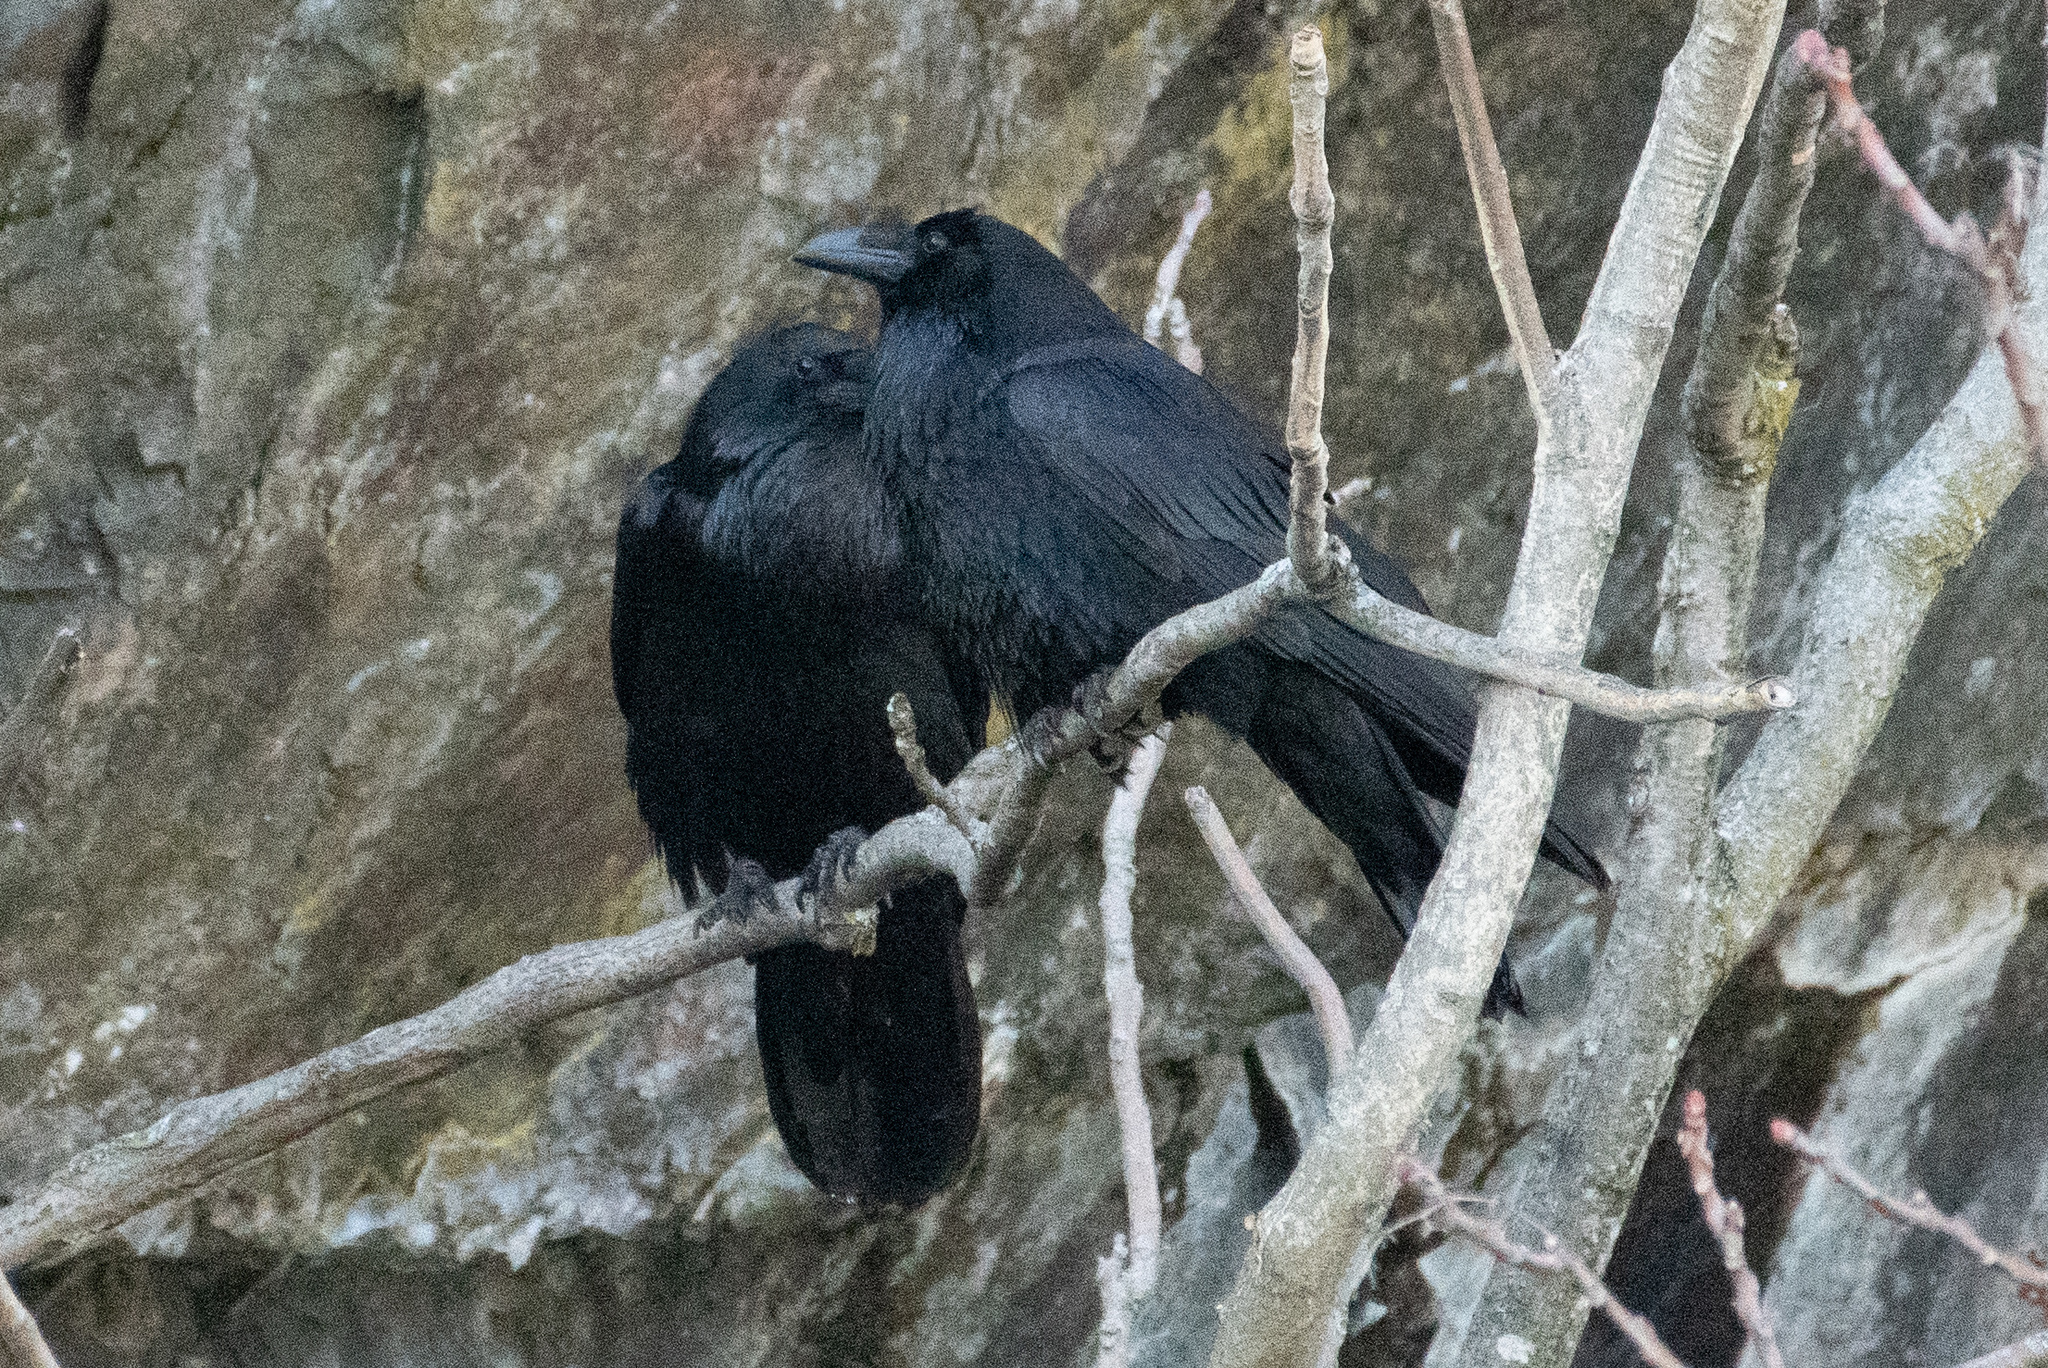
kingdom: Animalia
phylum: Chordata
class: Aves
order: Passeriformes
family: Corvidae
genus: Corvus
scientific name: Corvus corax
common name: Common raven
